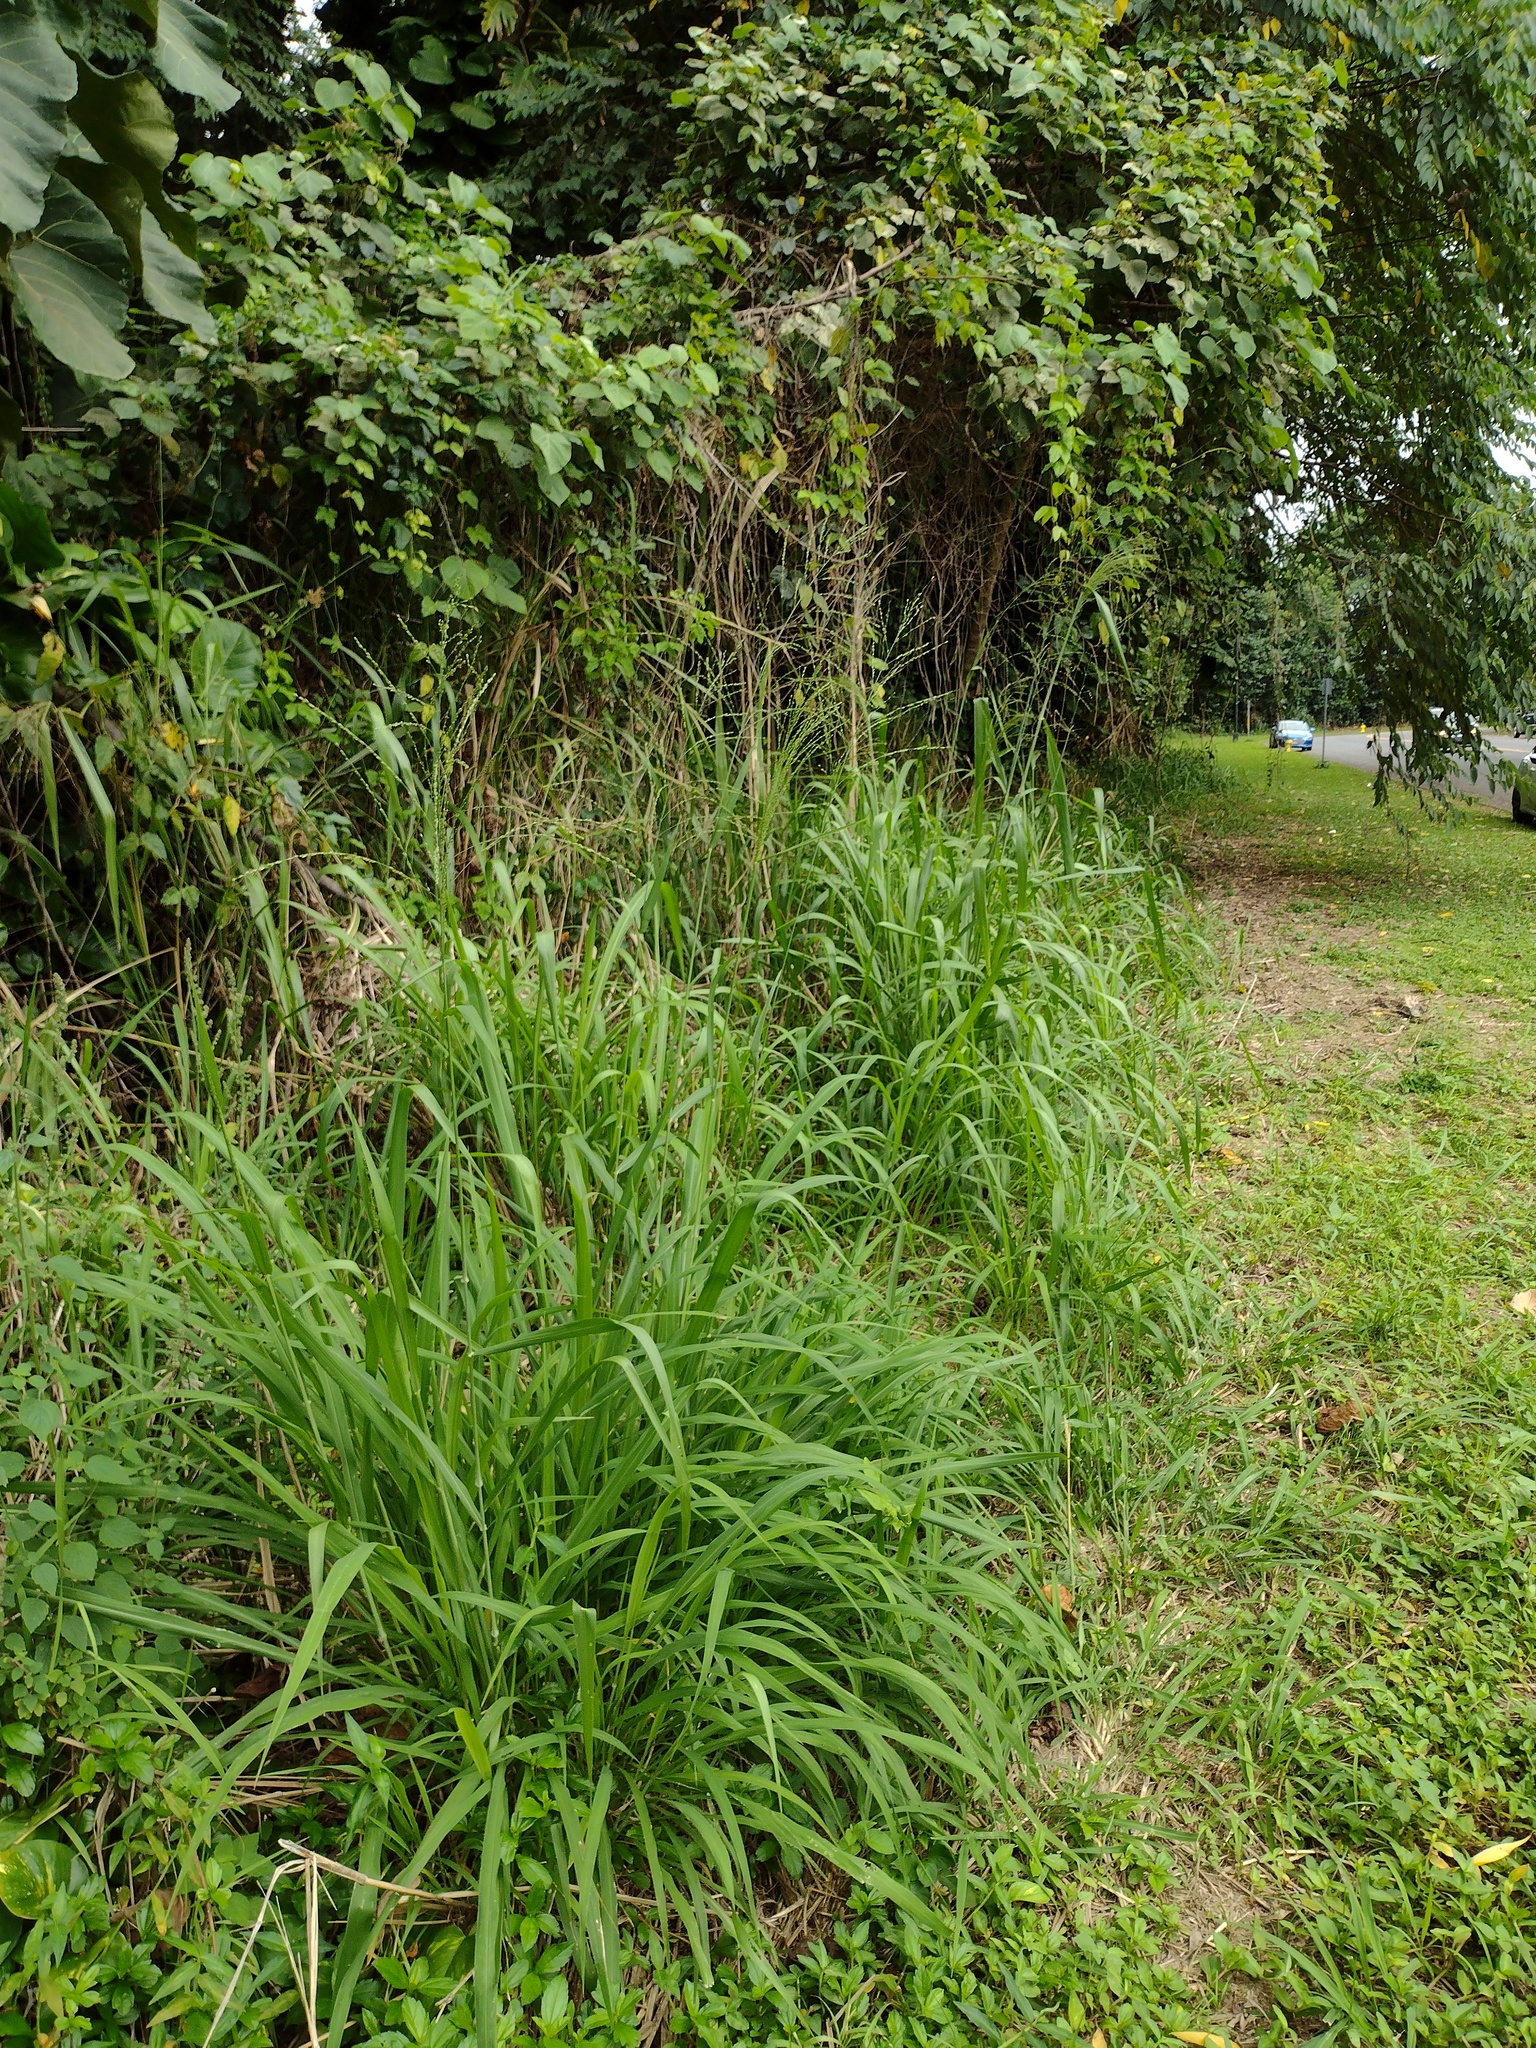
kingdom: Plantae
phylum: Tracheophyta
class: Liliopsida
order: Poales
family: Poaceae
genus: Megathyrsus
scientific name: Megathyrsus maximus
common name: Guineagrass
